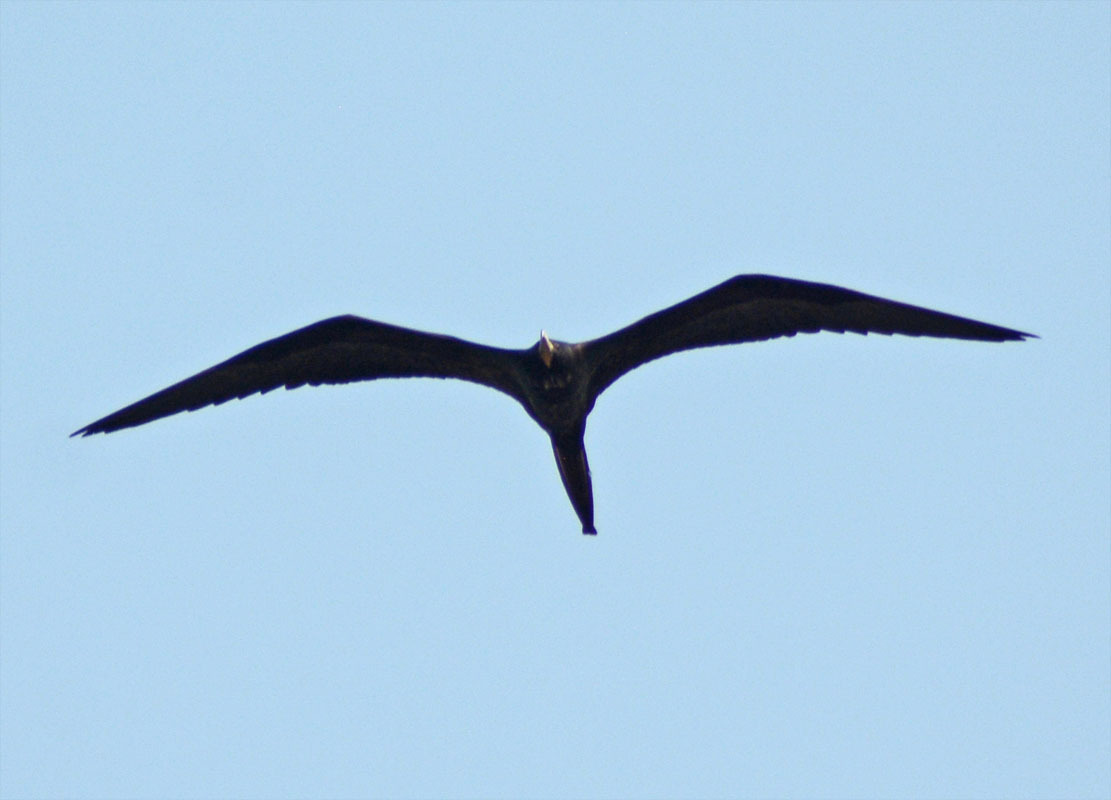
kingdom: Animalia
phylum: Chordata
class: Aves
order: Suliformes
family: Fregatidae
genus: Fregata
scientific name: Fregata magnificens
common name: Magnificent frigatebird
